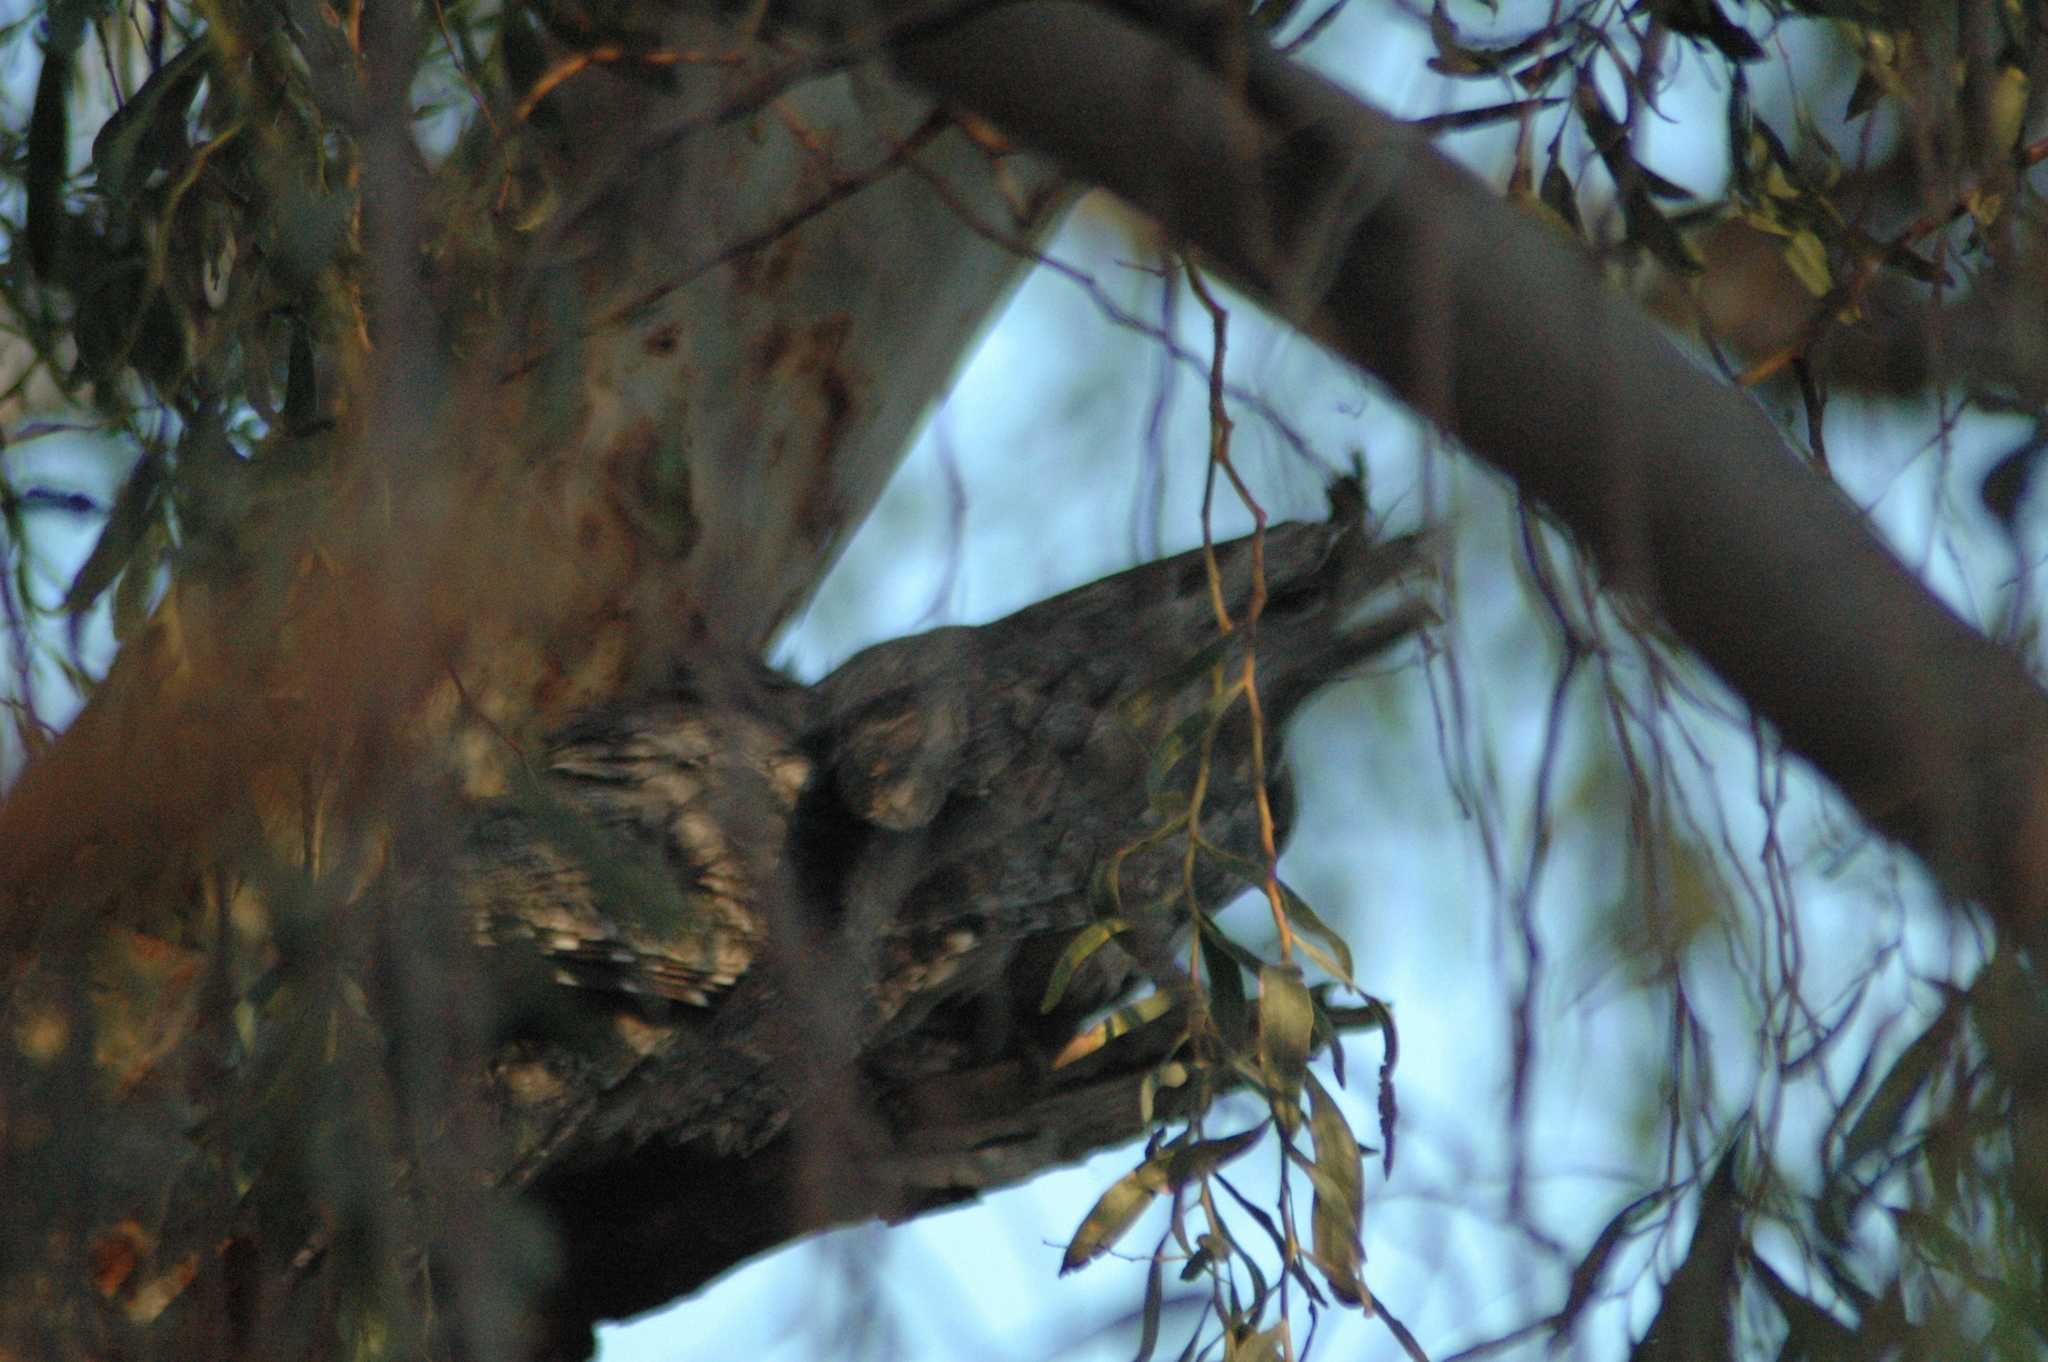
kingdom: Animalia
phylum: Chordata
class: Aves
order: Caprimulgiformes
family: Podargidae
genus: Podargus
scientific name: Podargus strigoides
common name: Tawny frogmouth
